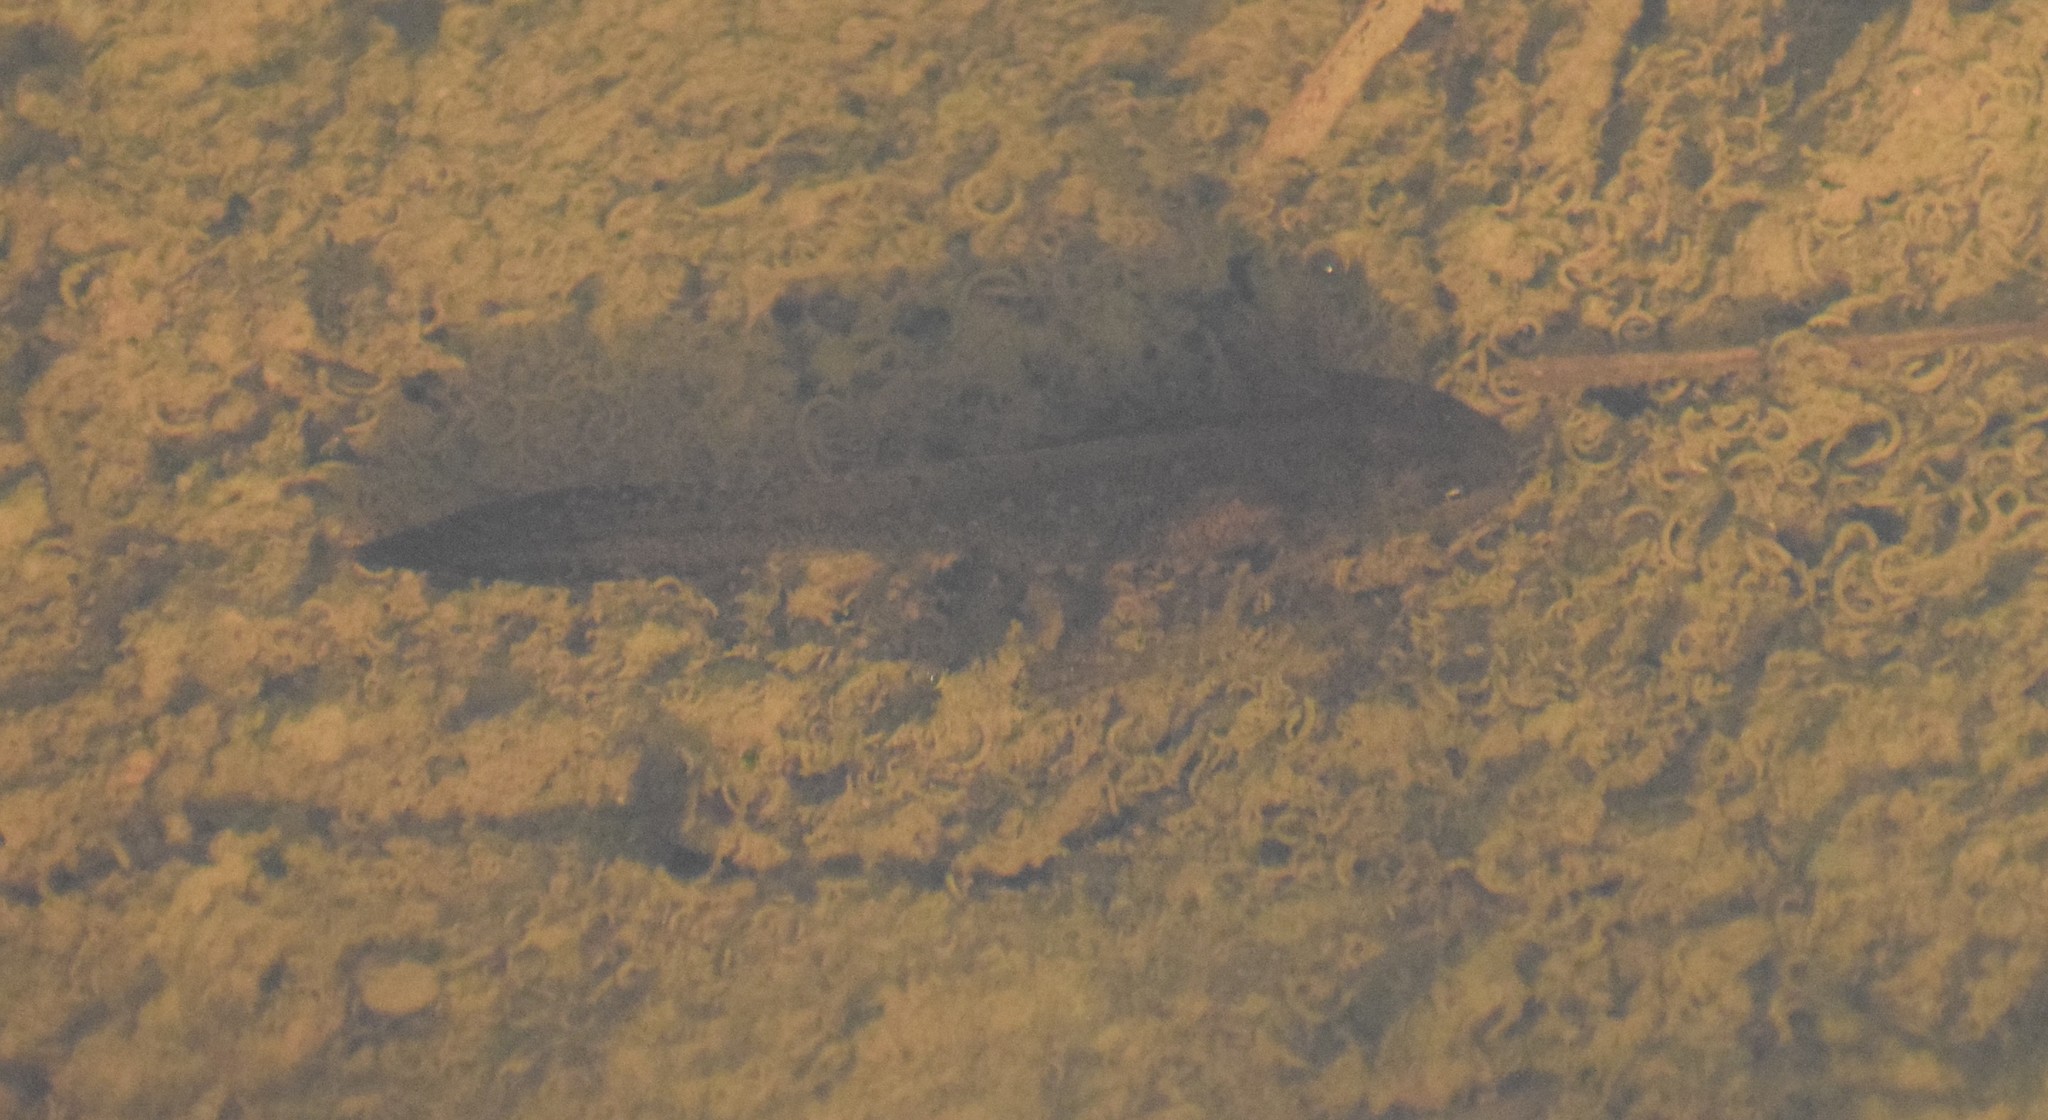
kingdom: Animalia
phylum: Chordata
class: Amphibia
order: Caudata
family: Salamandridae
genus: Ichthyosaura
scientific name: Ichthyosaura alpestris
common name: Alpine newt
